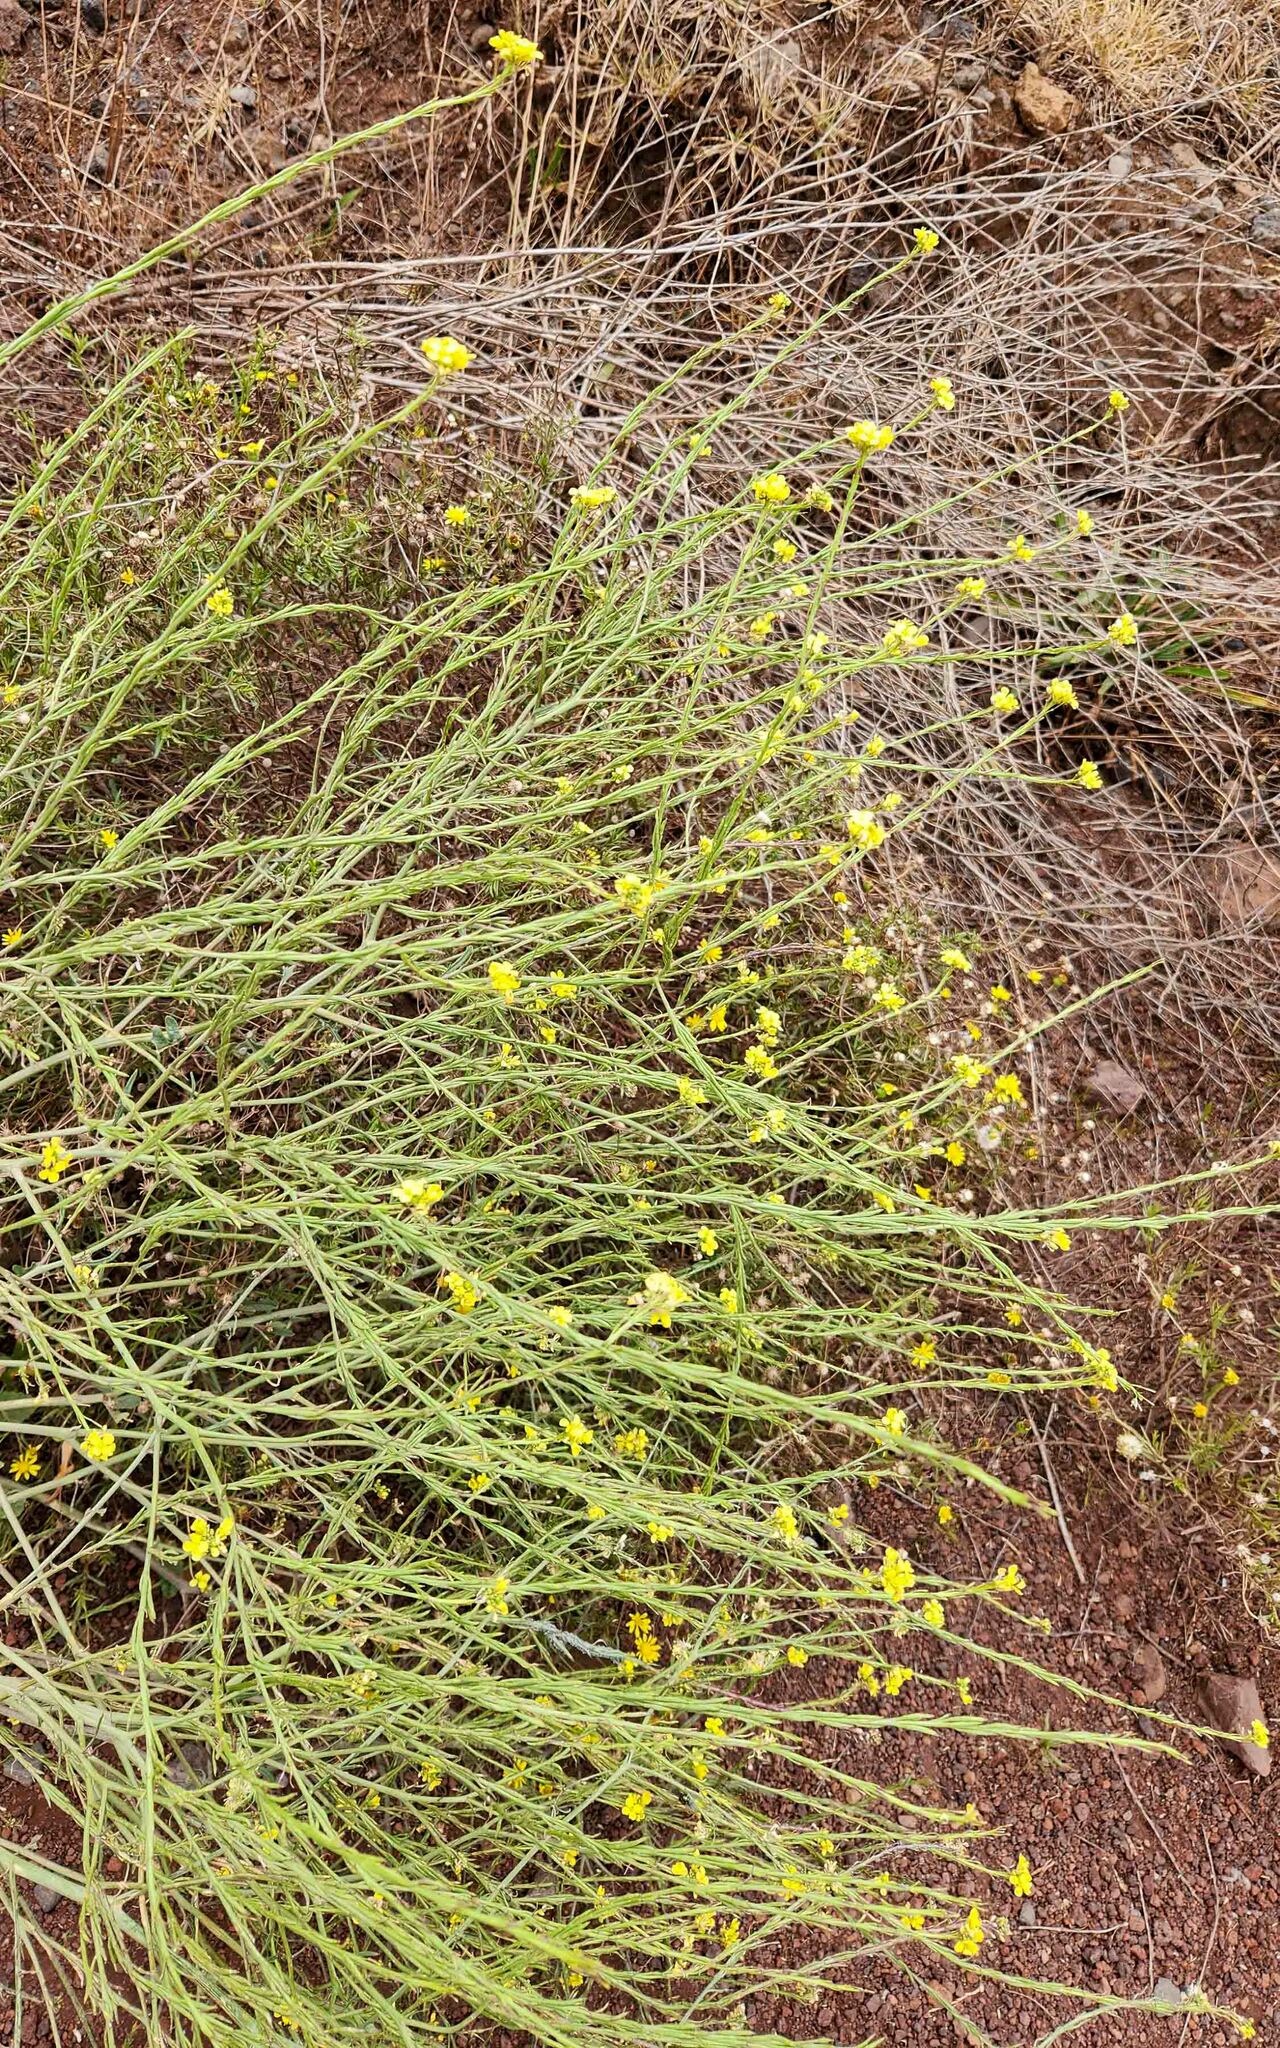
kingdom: Plantae
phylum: Tracheophyta
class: Magnoliopsida
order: Brassicales
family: Brassicaceae
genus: Hirschfeldia
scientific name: Hirschfeldia incana
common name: Hoary mustard
